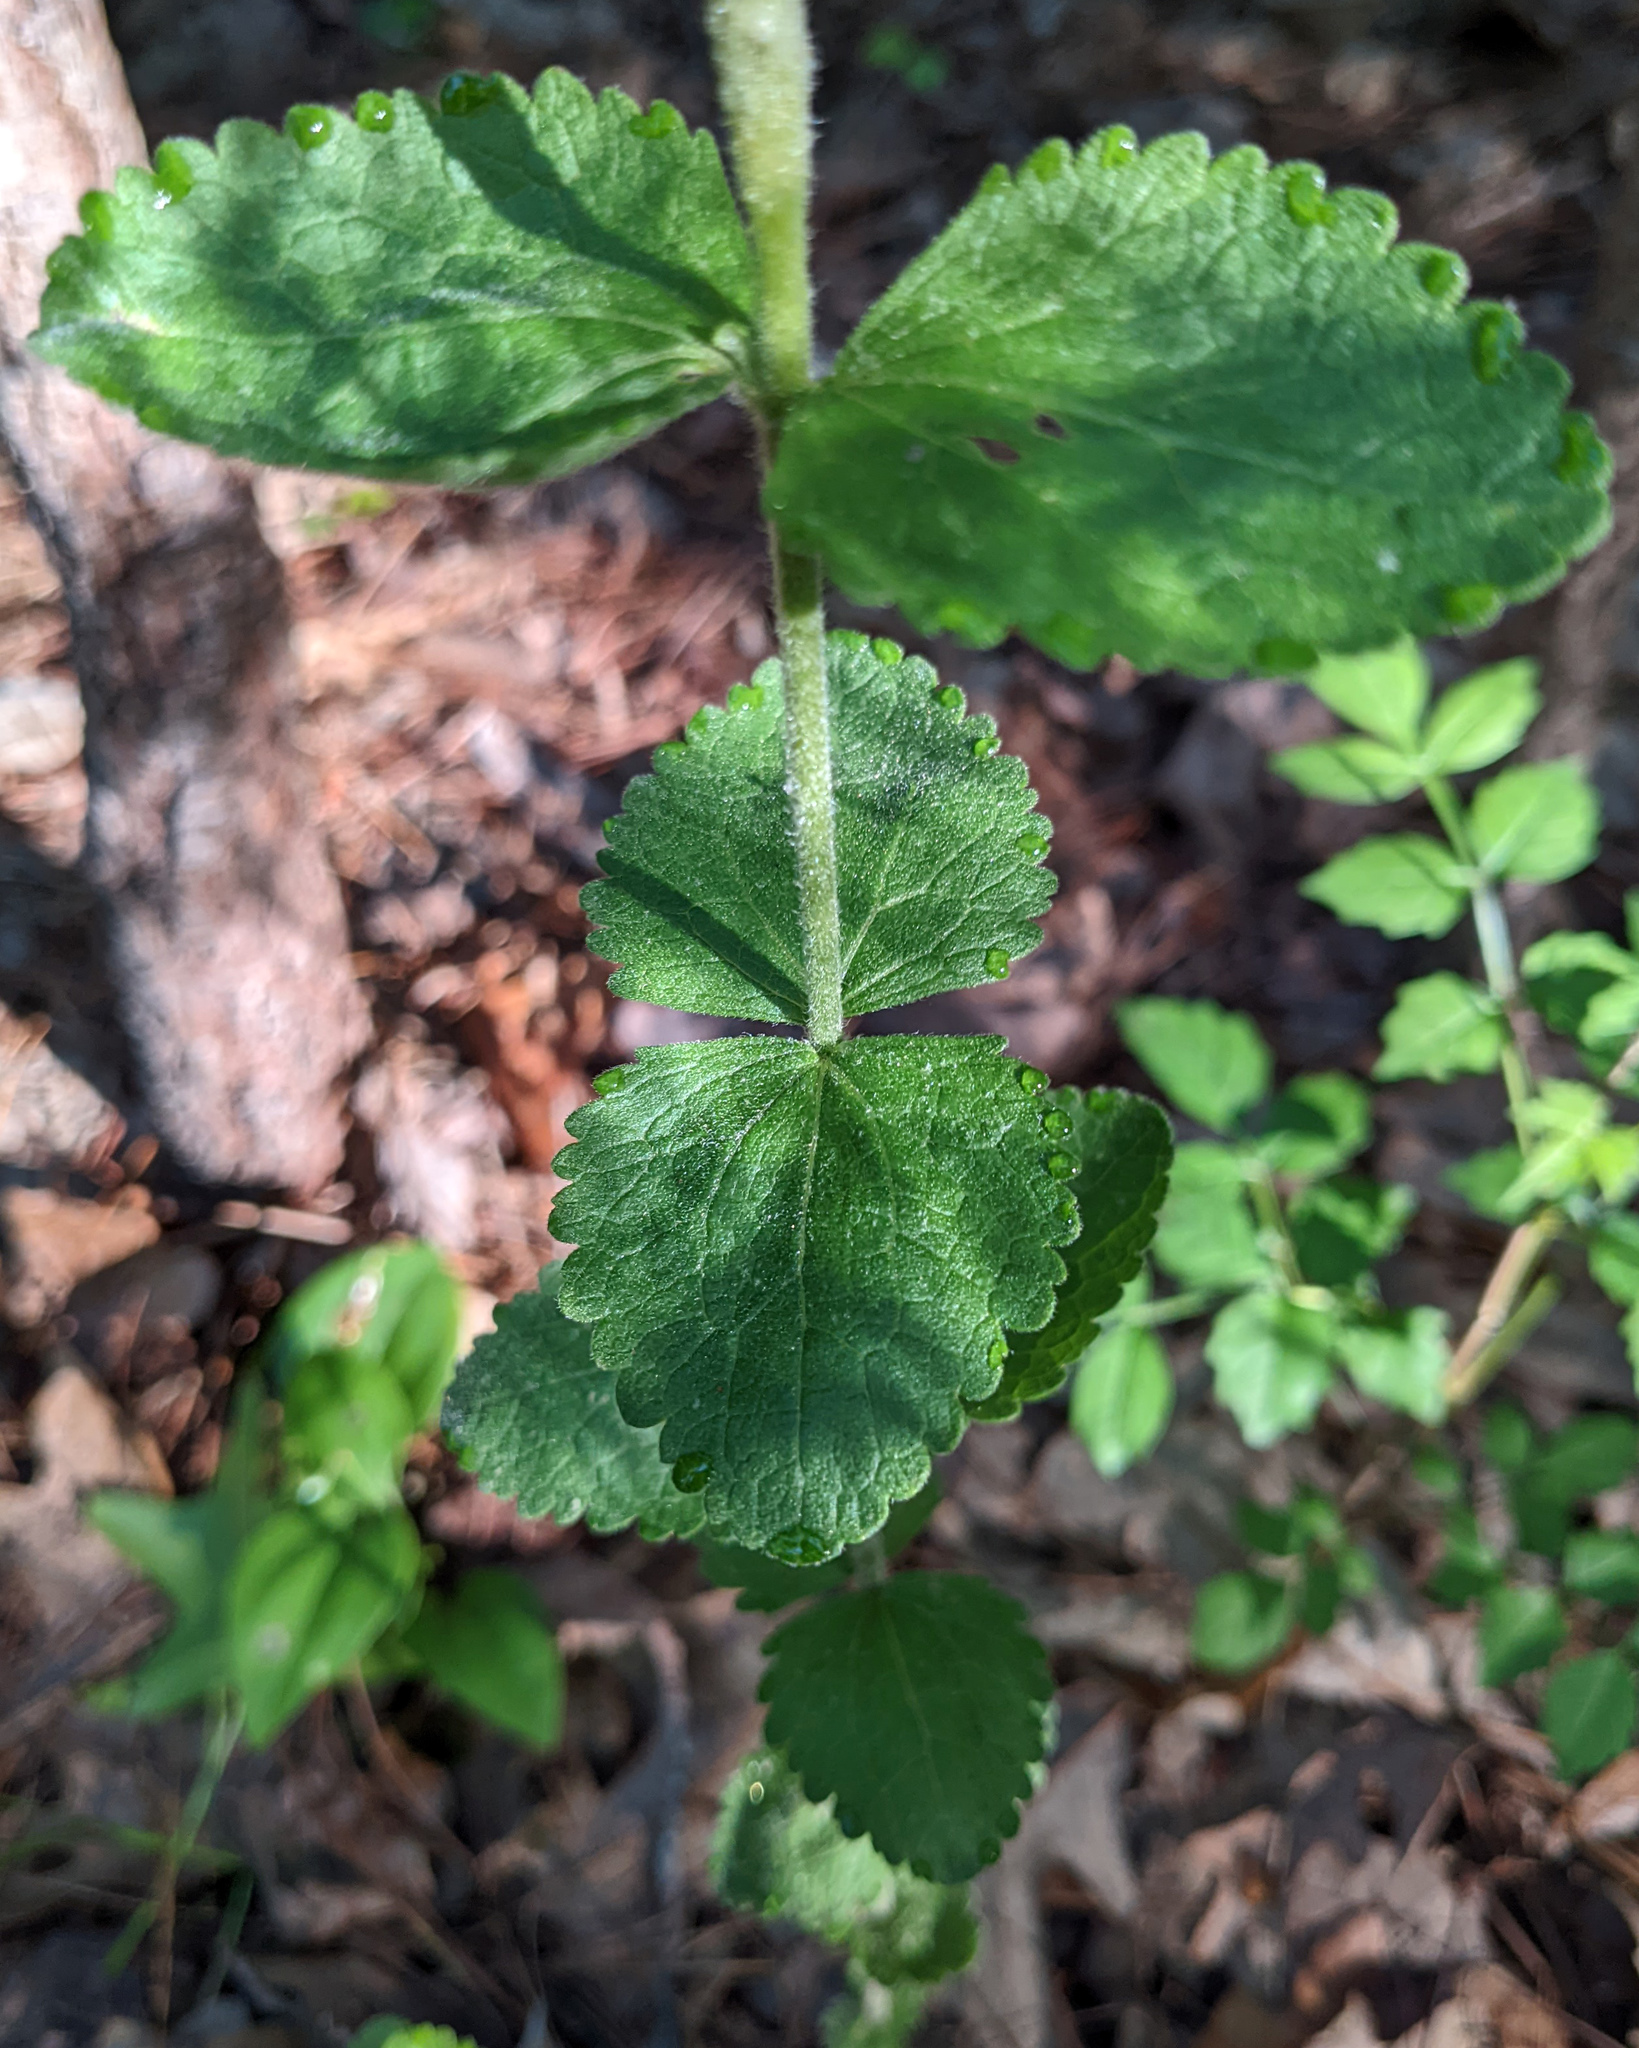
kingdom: Plantae
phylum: Tracheophyta
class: Magnoliopsida
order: Asterales
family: Asteraceae
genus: Eupatorium
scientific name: Eupatorium rotundifolium
